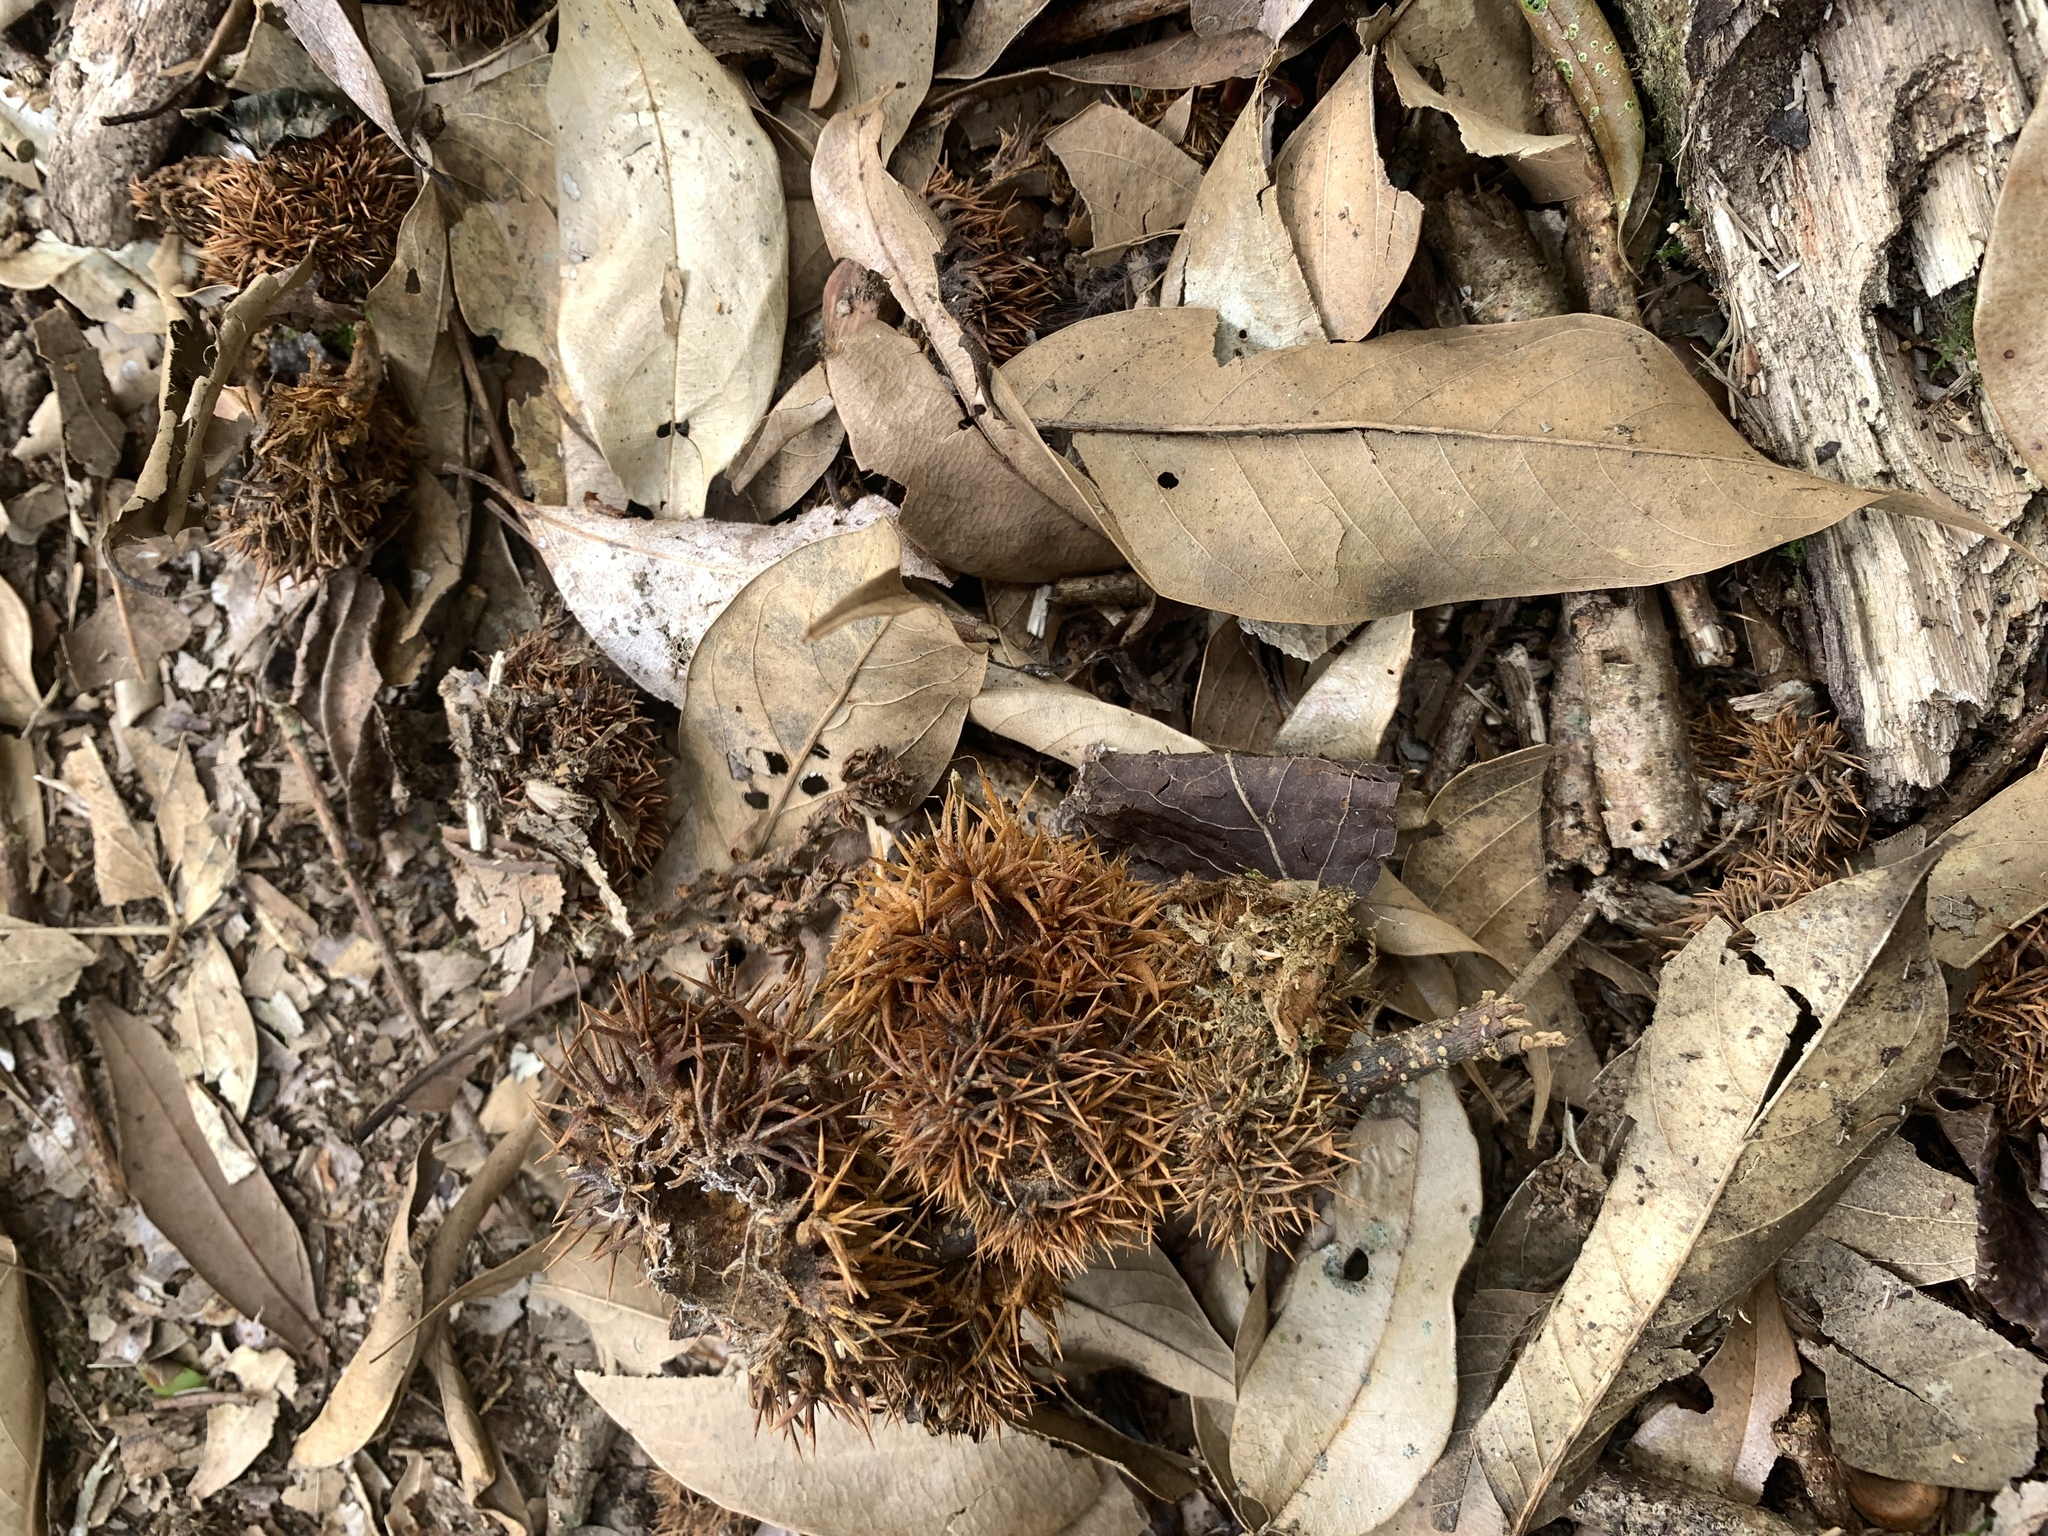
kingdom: Plantae
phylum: Tracheophyta
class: Magnoliopsida
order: Fagales
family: Fagaceae
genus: Castanopsis
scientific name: Castanopsis faberi
